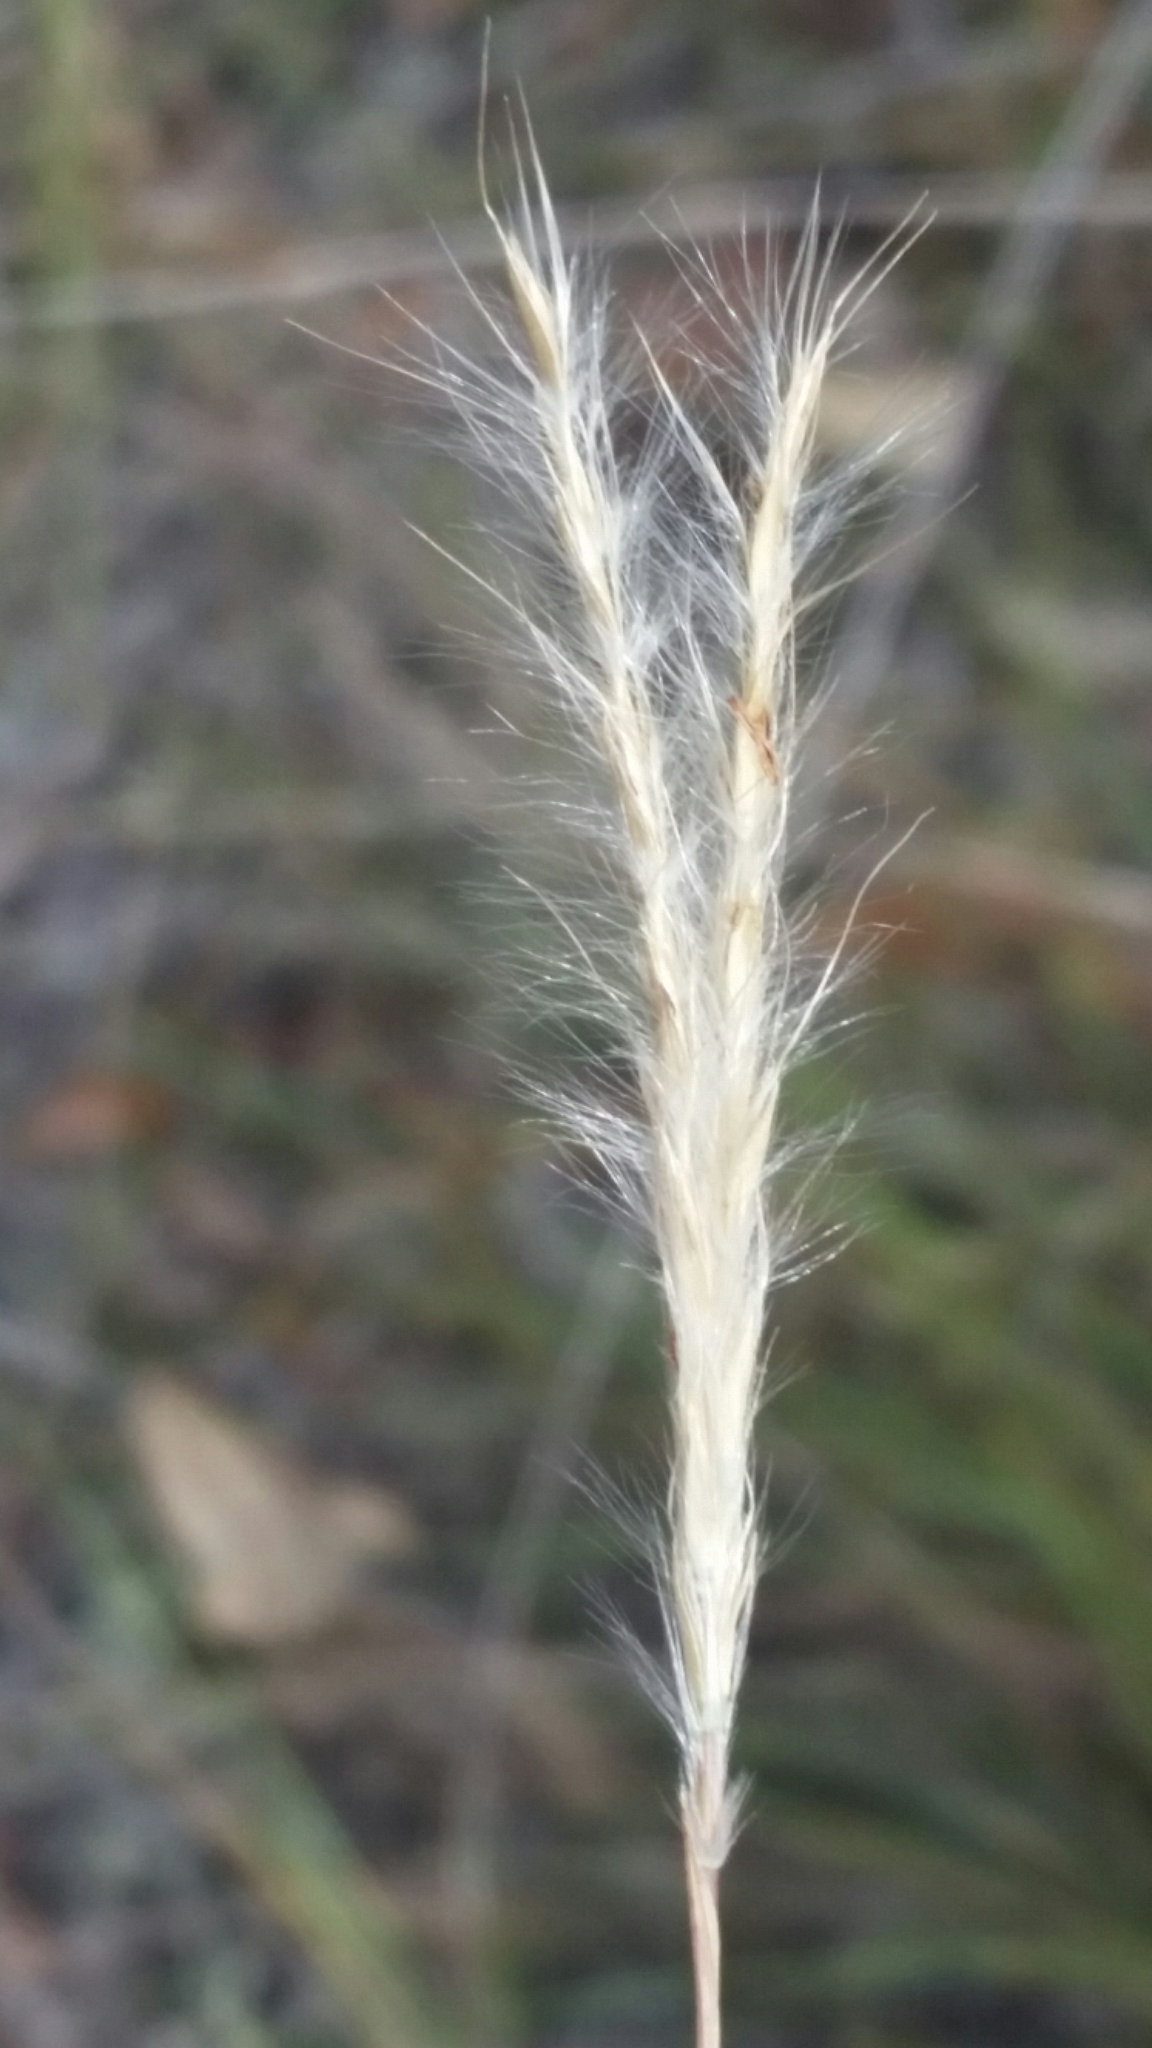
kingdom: Plantae
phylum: Tracheophyta
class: Liliopsida
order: Poales
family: Poaceae
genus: Andropogon
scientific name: Andropogon cumulicola
